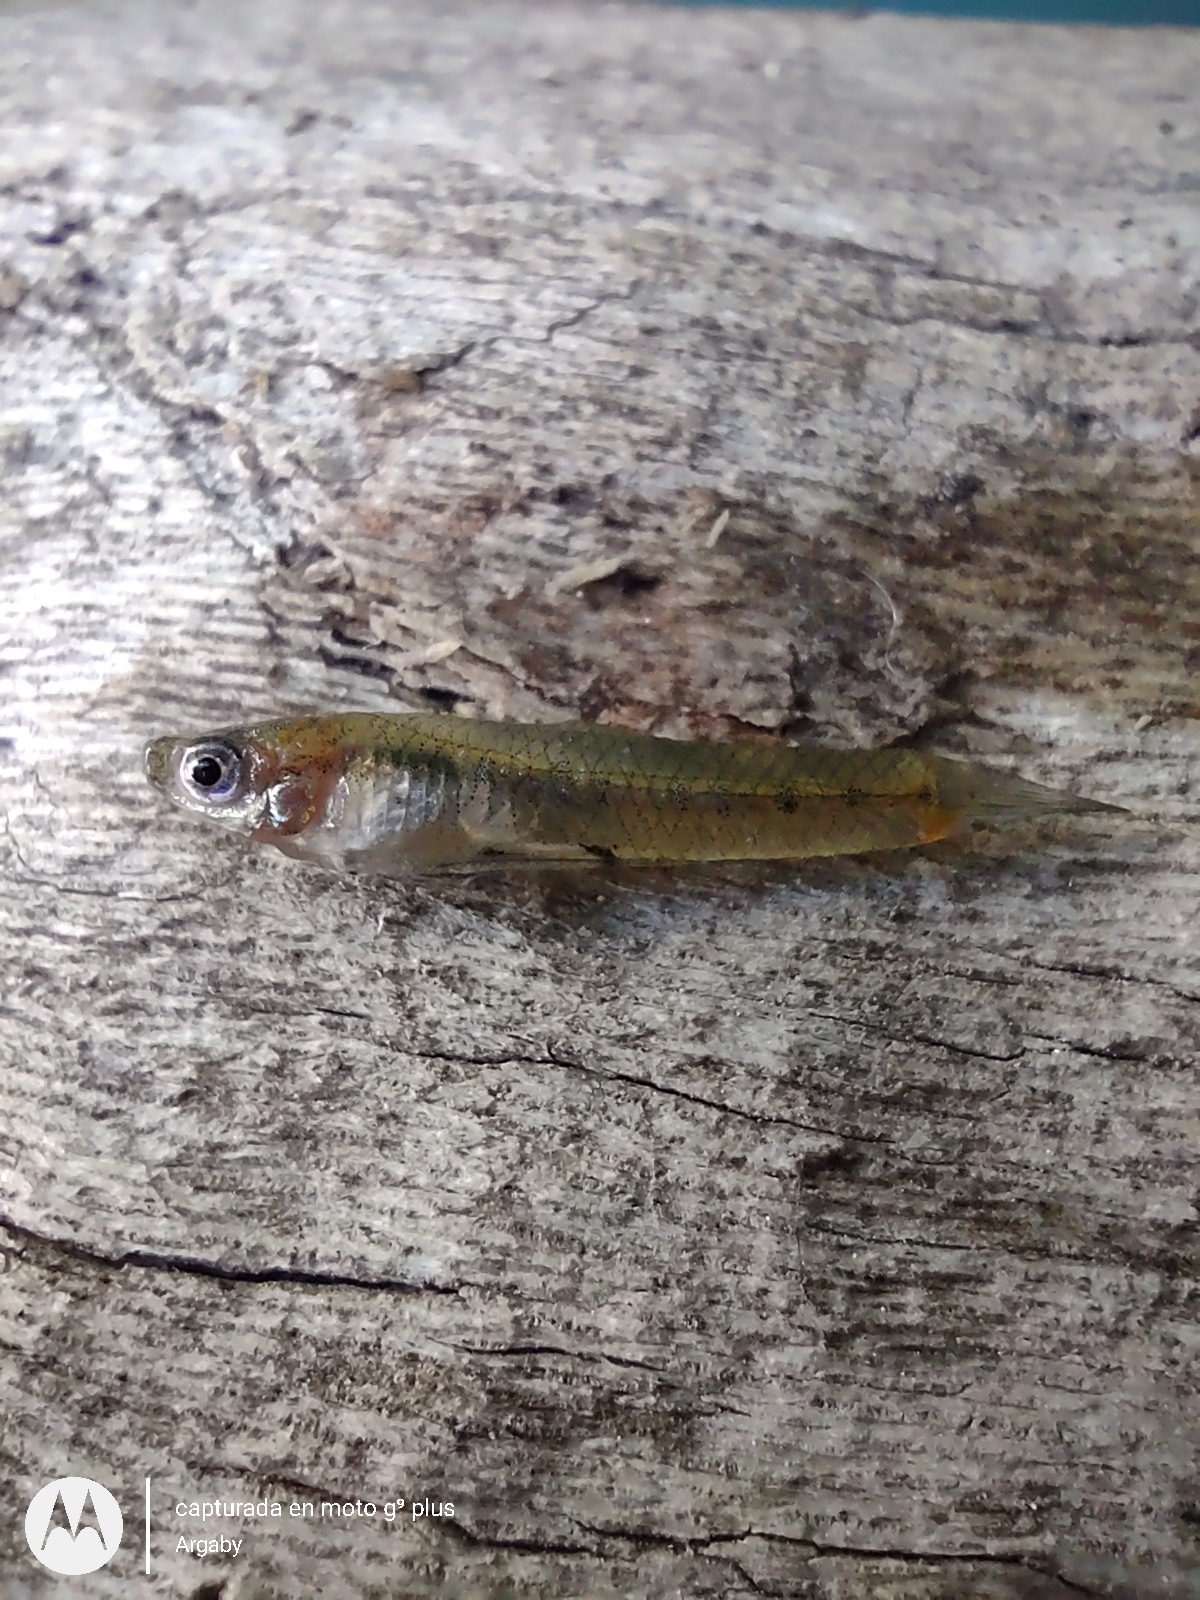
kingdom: Animalia
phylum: Chordata
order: Cyprinodontiformes
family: Poeciliidae
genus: Cnesterodon
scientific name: Cnesterodon decemmaculatus
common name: Ten spotted live-bearer
